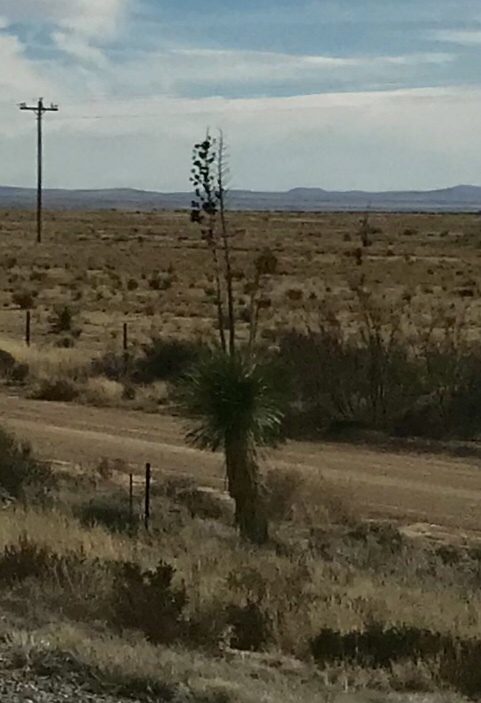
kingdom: Plantae
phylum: Tracheophyta
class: Liliopsida
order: Asparagales
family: Asparagaceae
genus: Yucca
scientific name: Yucca elata
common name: Palmella
